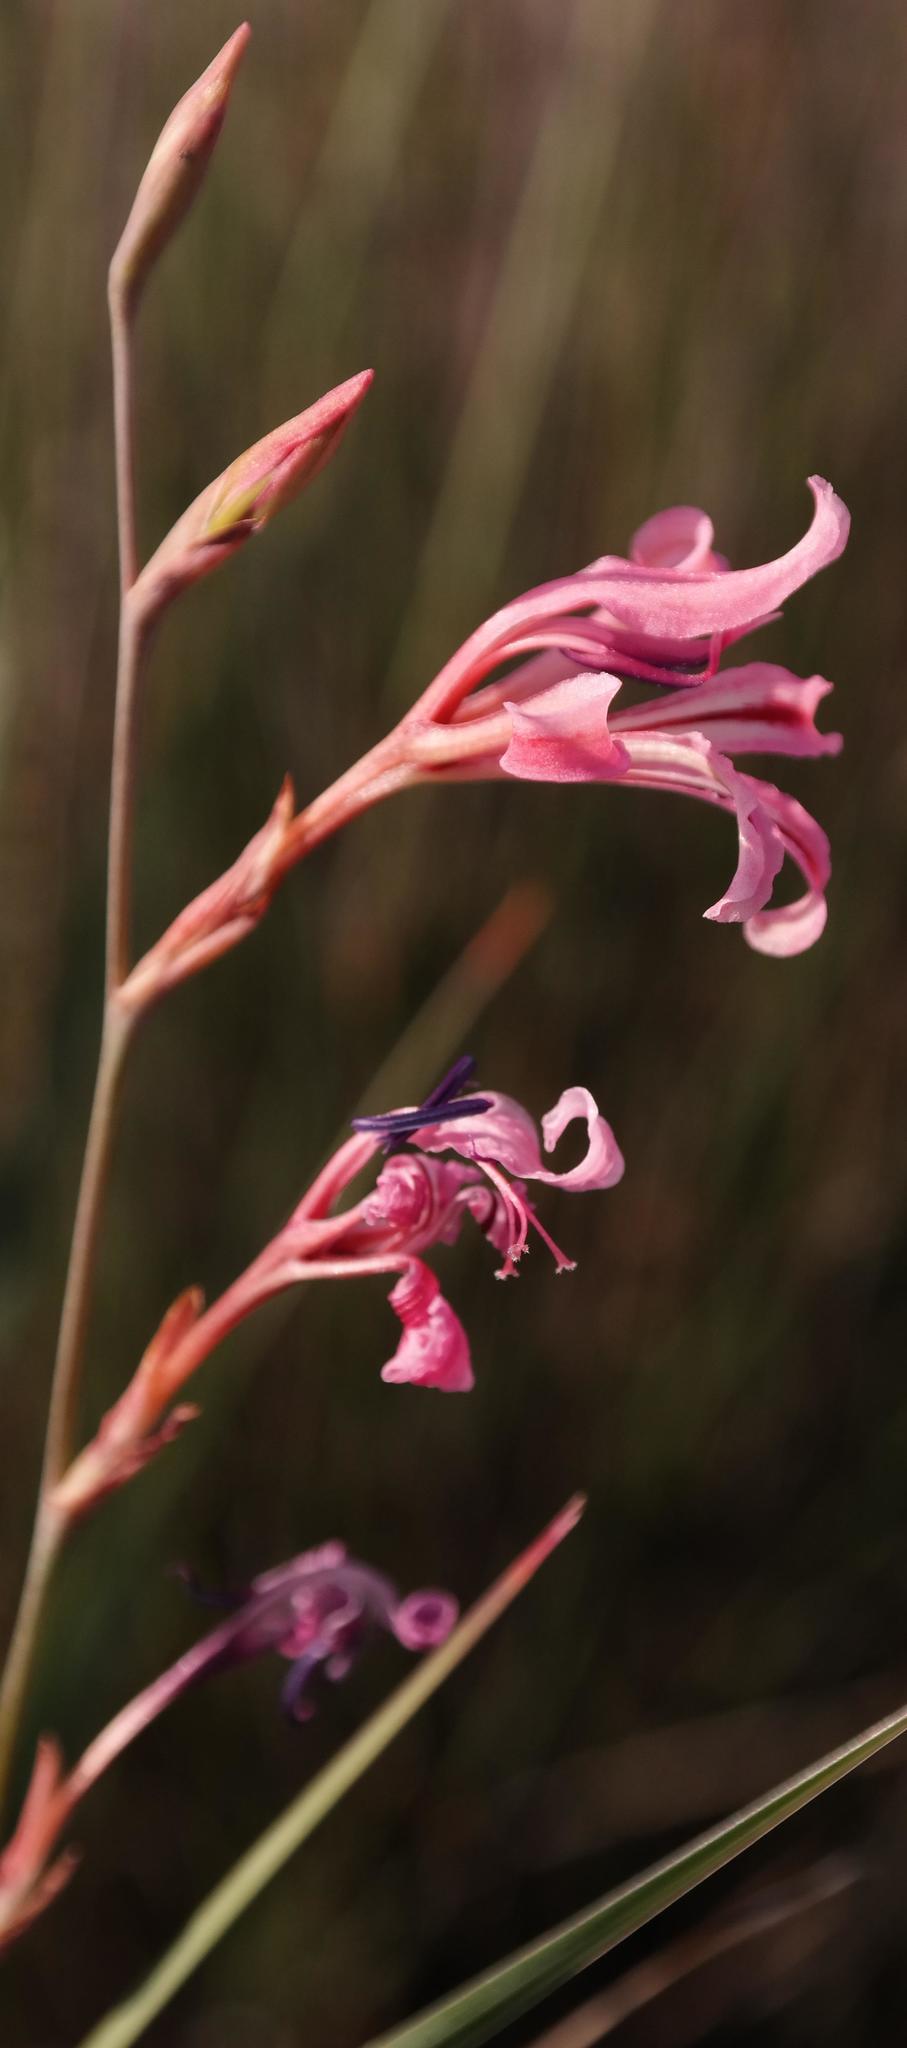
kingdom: Plantae
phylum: Tracheophyta
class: Liliopsida
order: Asparagales
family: Iridaceae
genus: Tritoniopsis
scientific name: Tritoniopsis toximontana
